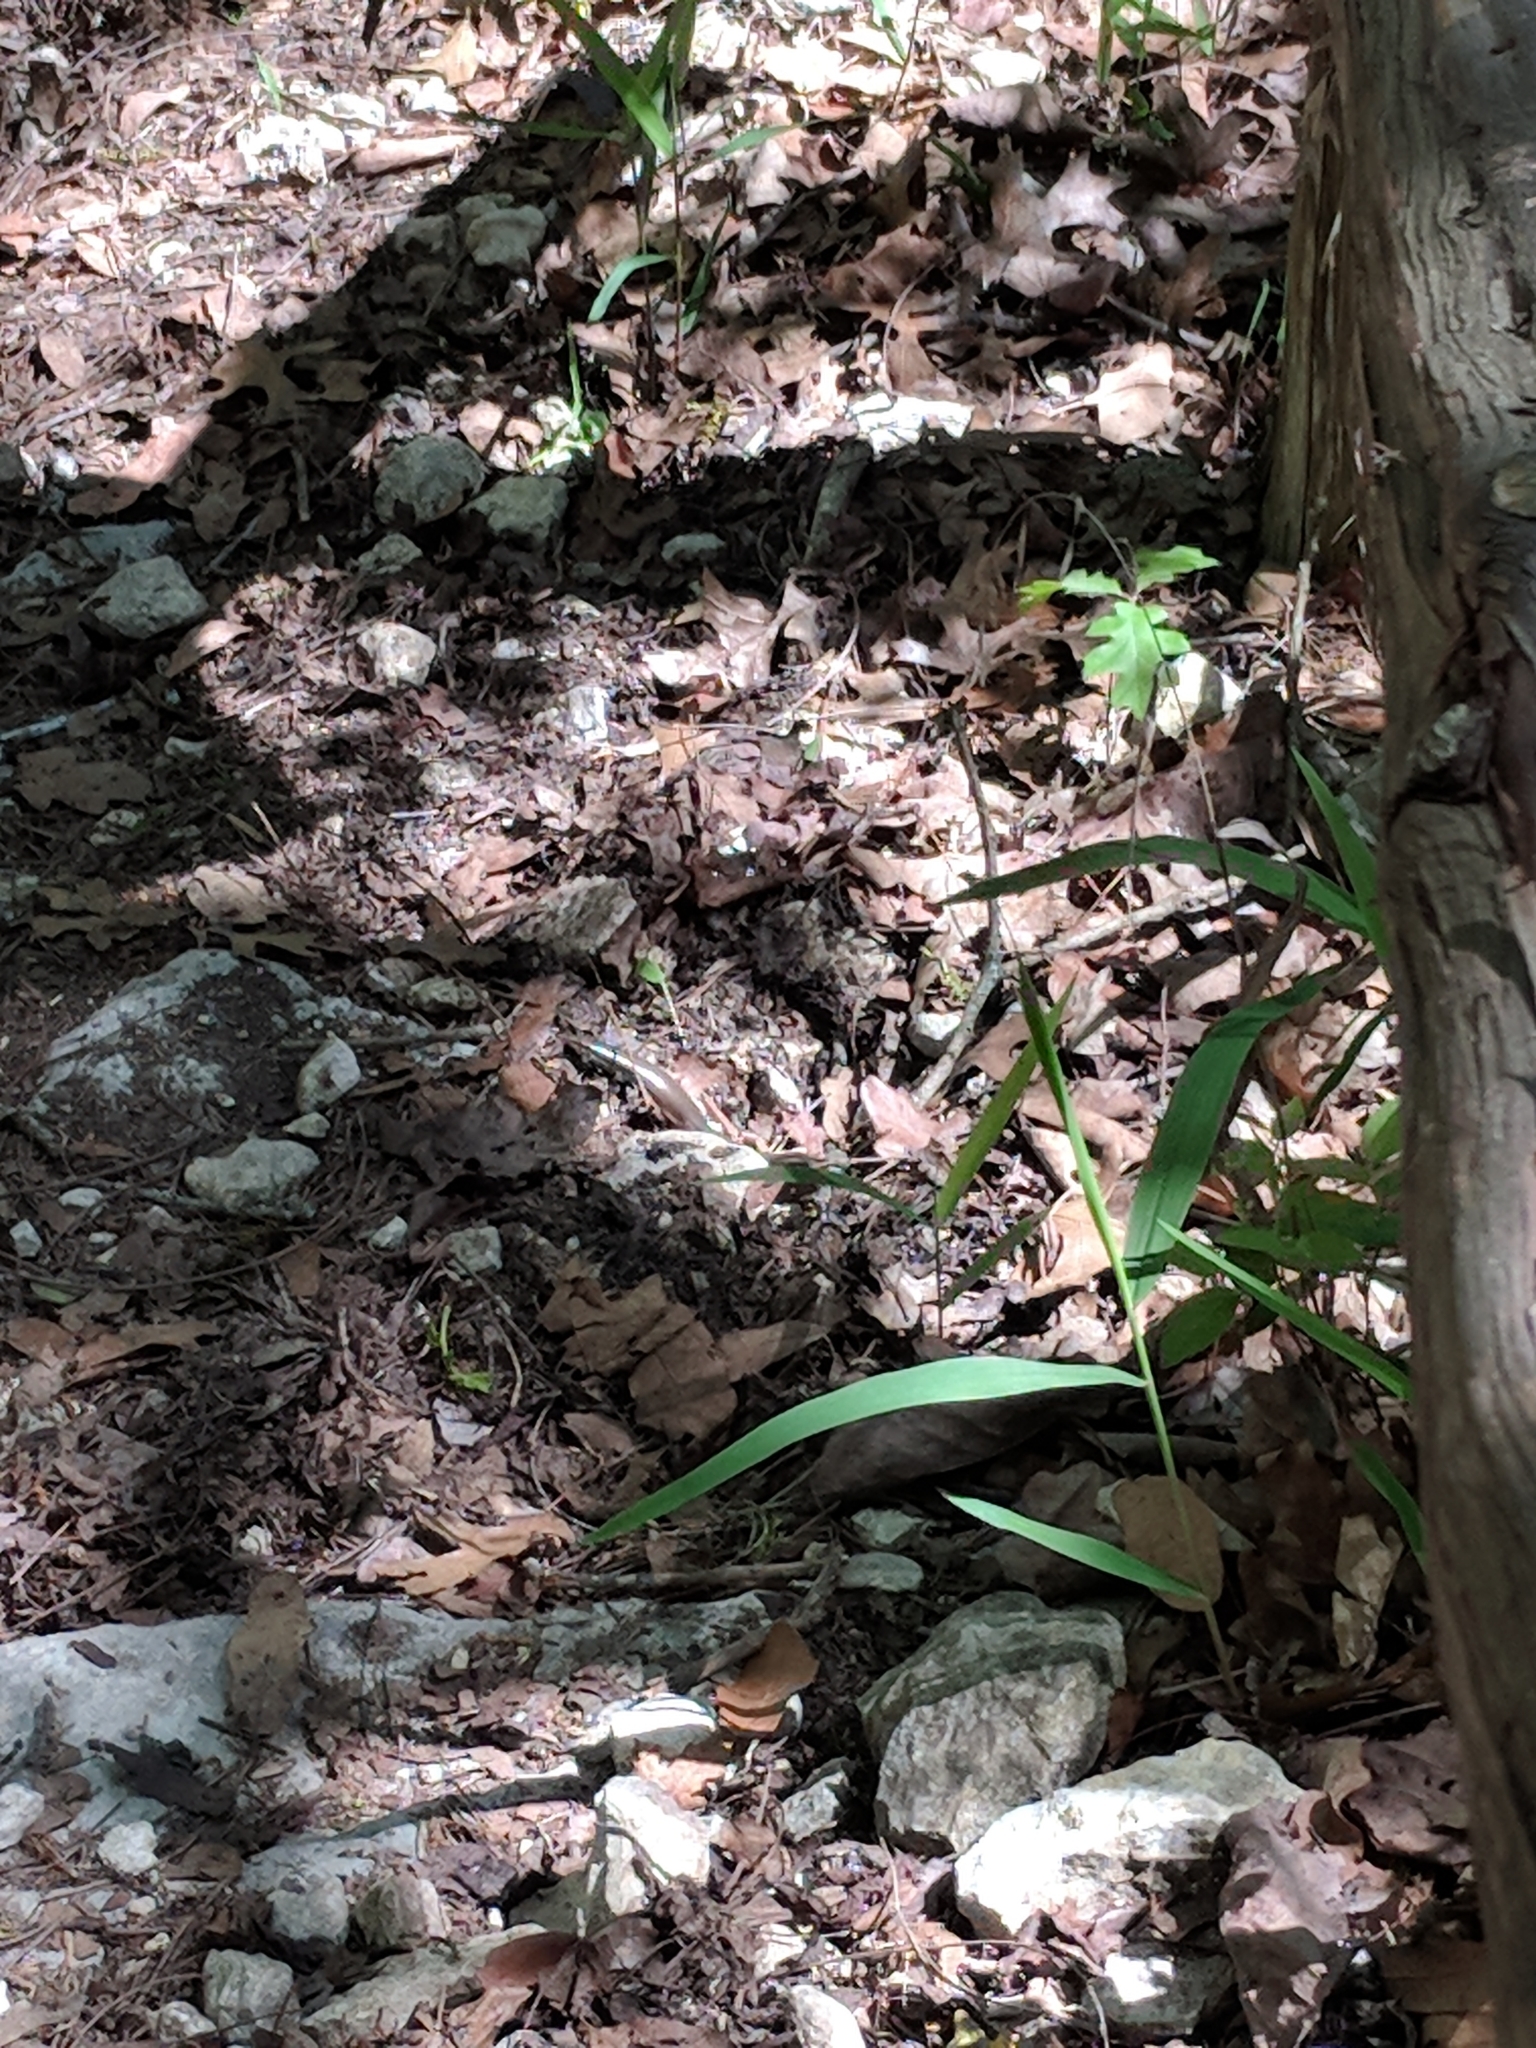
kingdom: Animalia
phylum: Chordata
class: Squamata
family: Scincidae
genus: Plestiodon
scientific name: Plestiodon tetragrammus
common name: Four-lined skink
